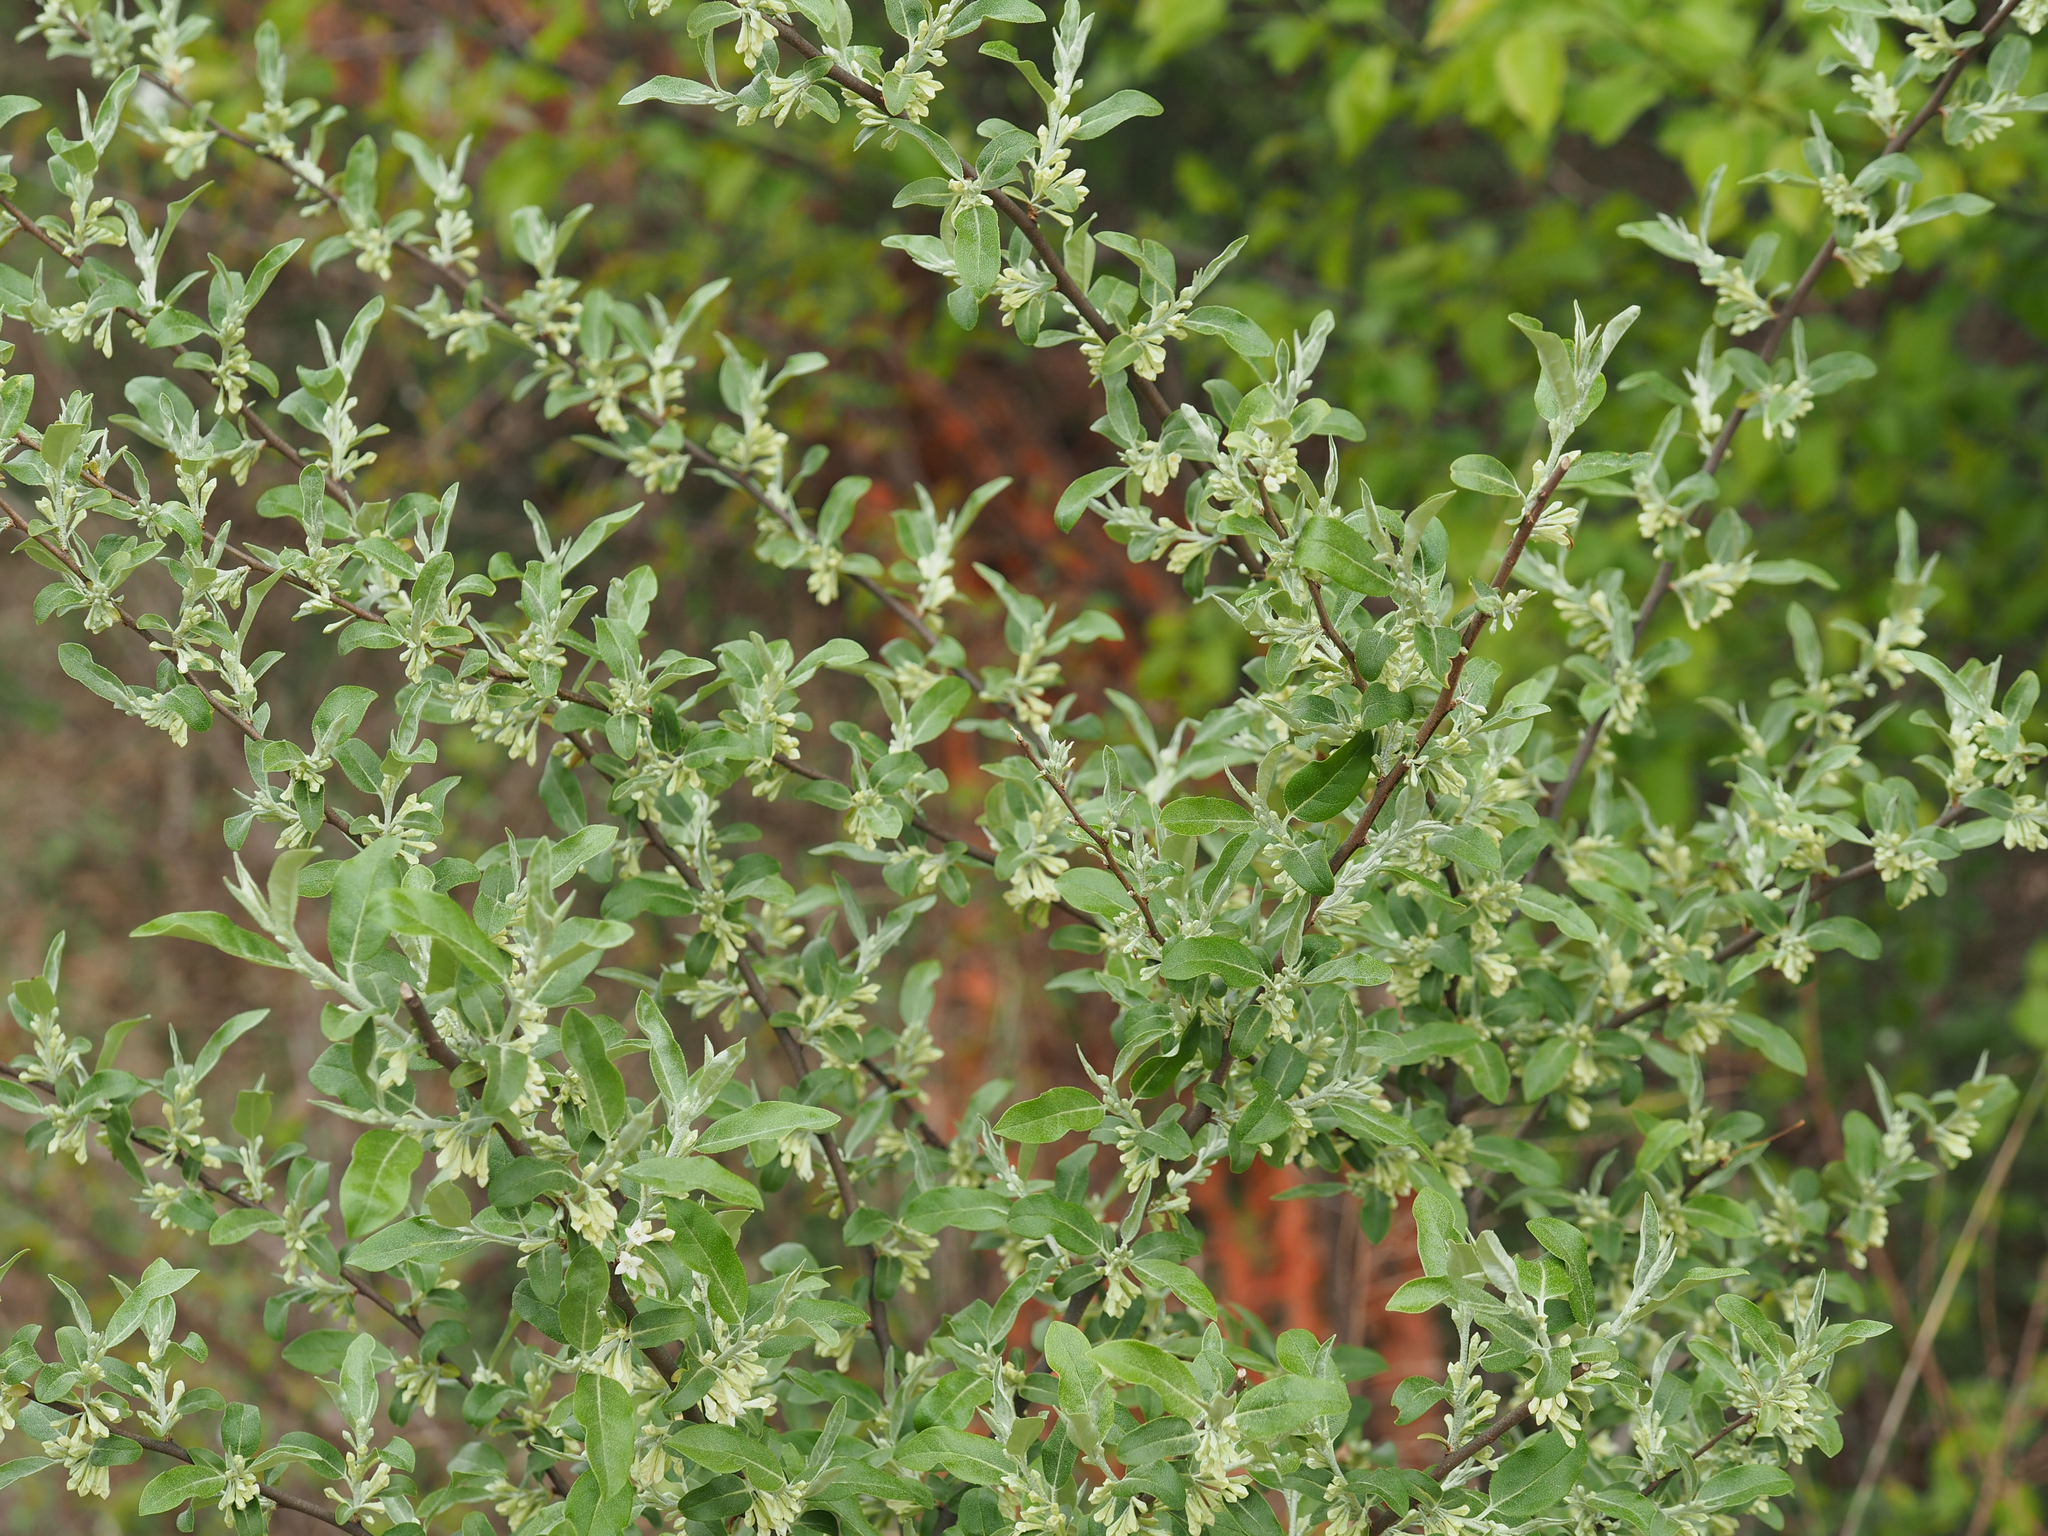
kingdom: Plantae
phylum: Tracheophyta
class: Magnoliopsida
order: Rosales
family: Elaeagnaceae
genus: Elaeagnus
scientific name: Elaeagnus umbellata
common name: Autumn olive
